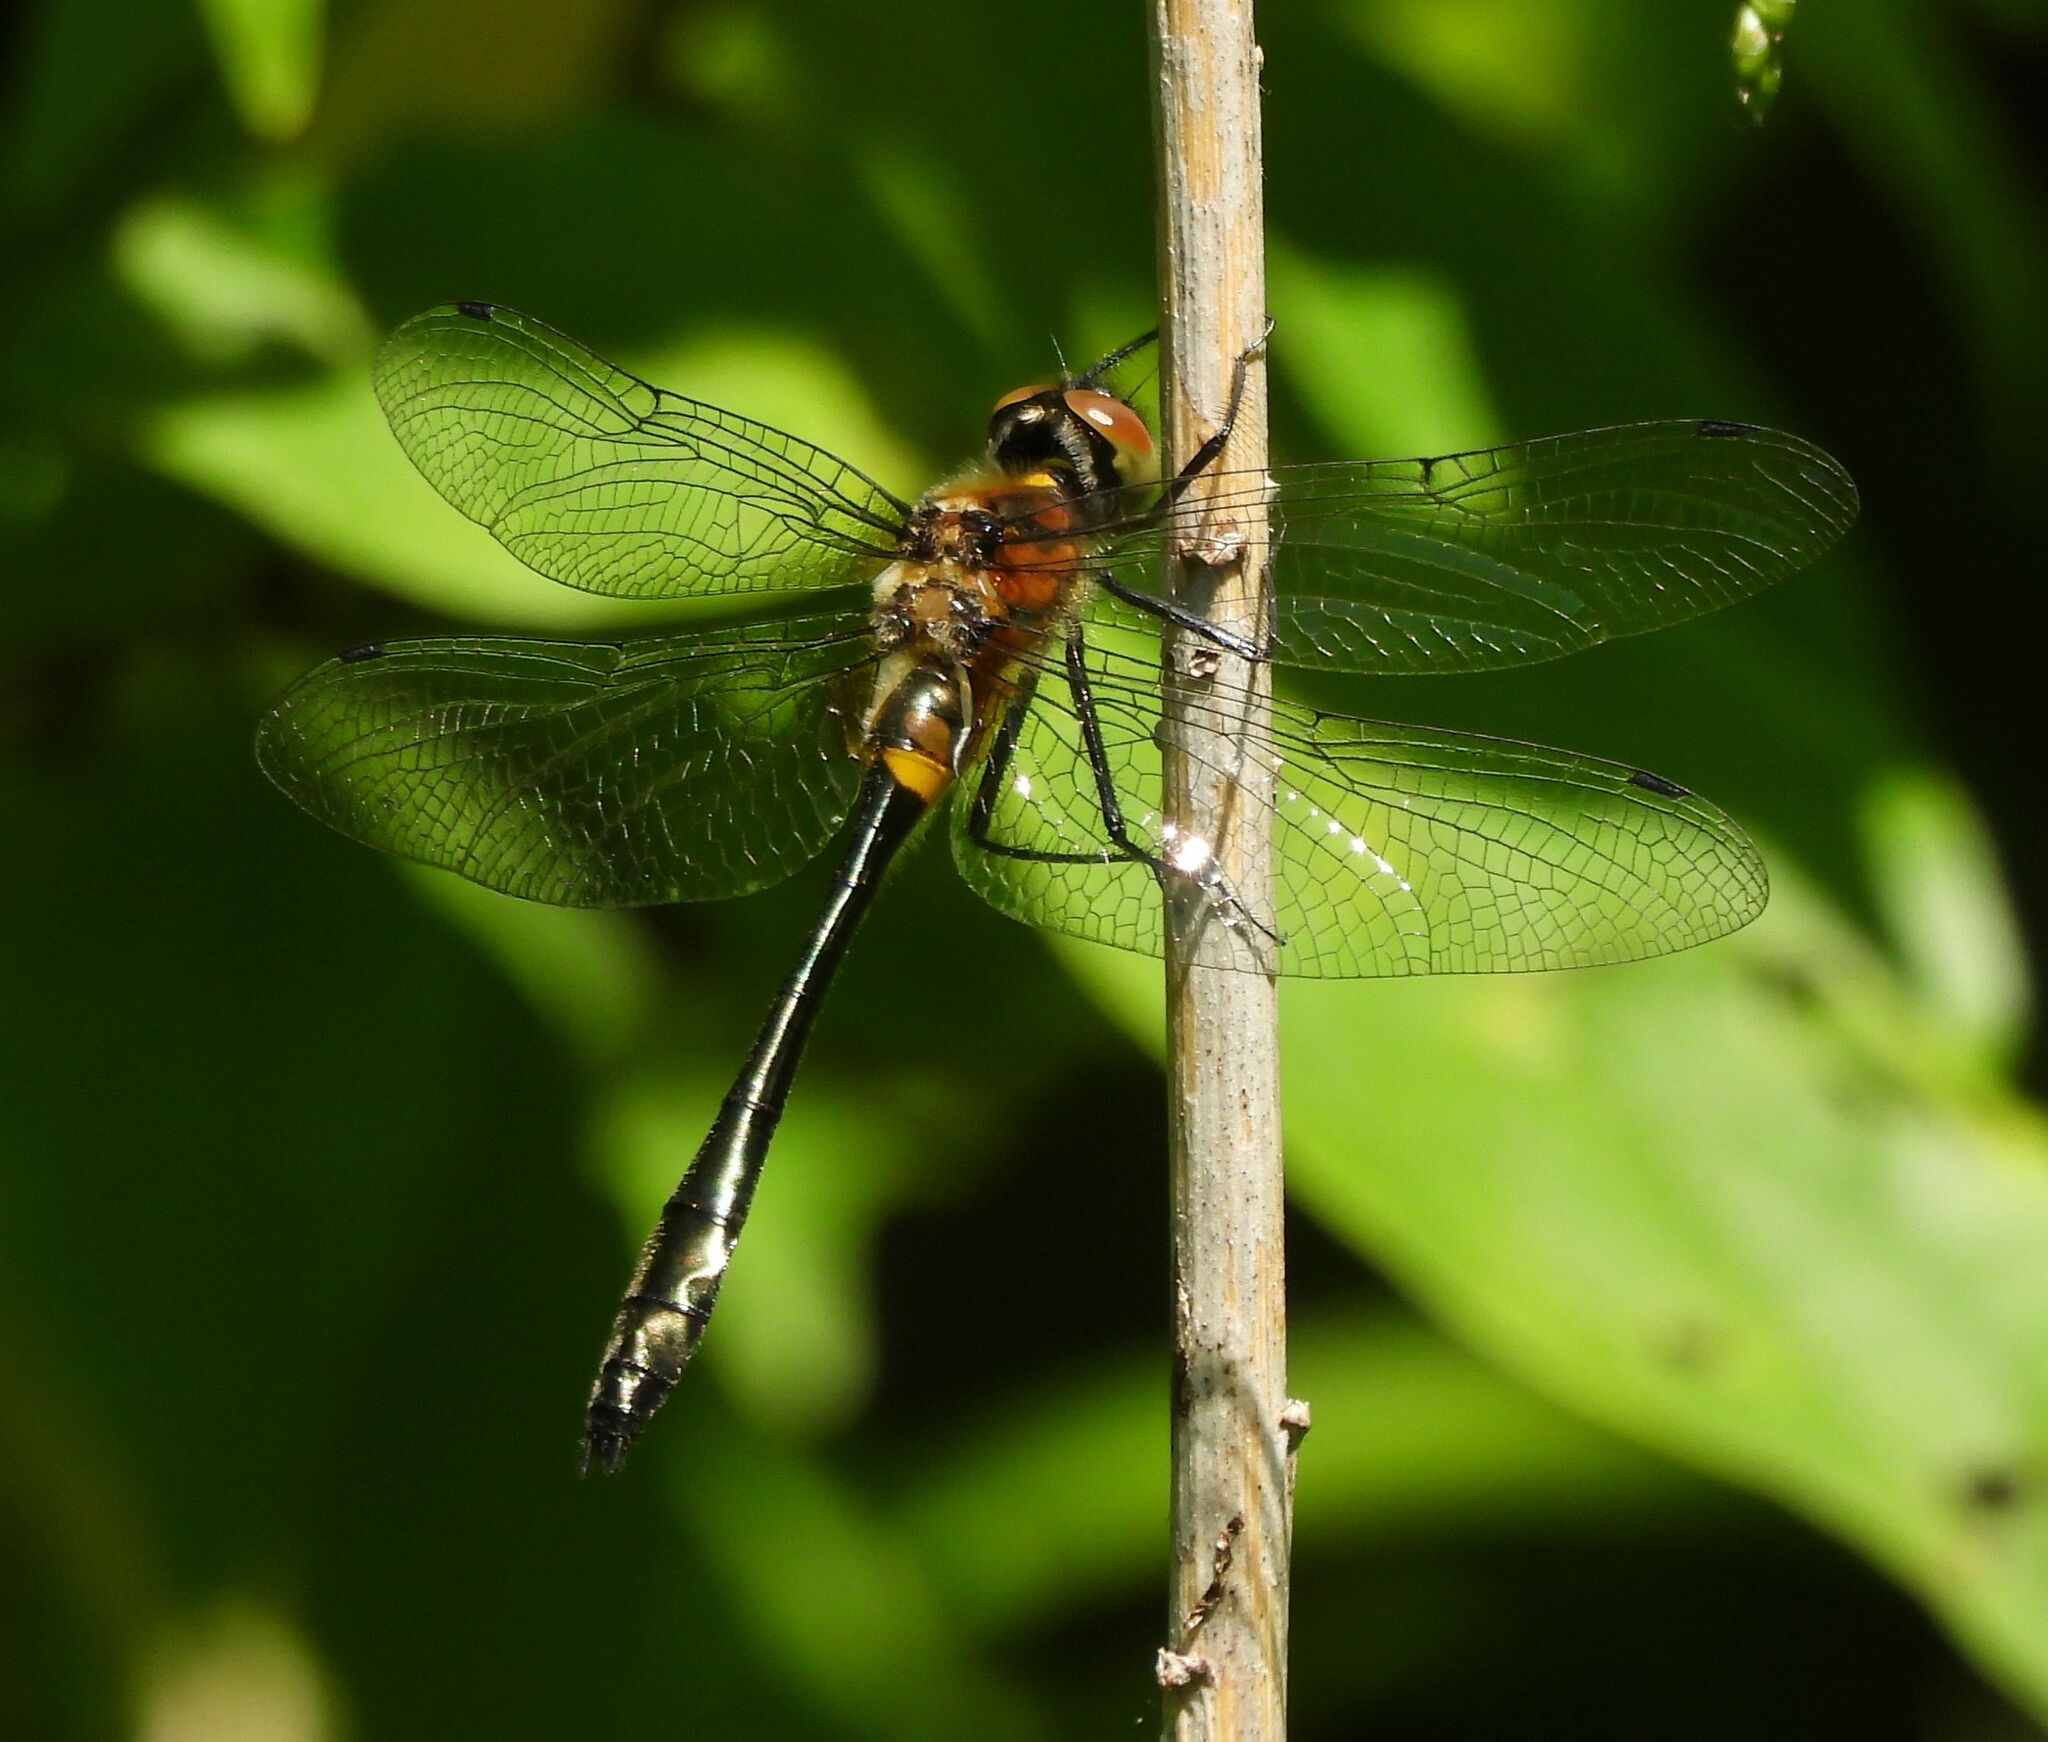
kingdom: Animalia
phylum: Arthropoda
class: Insecta
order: Odonata
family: Corduliidae
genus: Dorocordulia
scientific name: Dorocordulia libera
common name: Racket-tailed emerald
